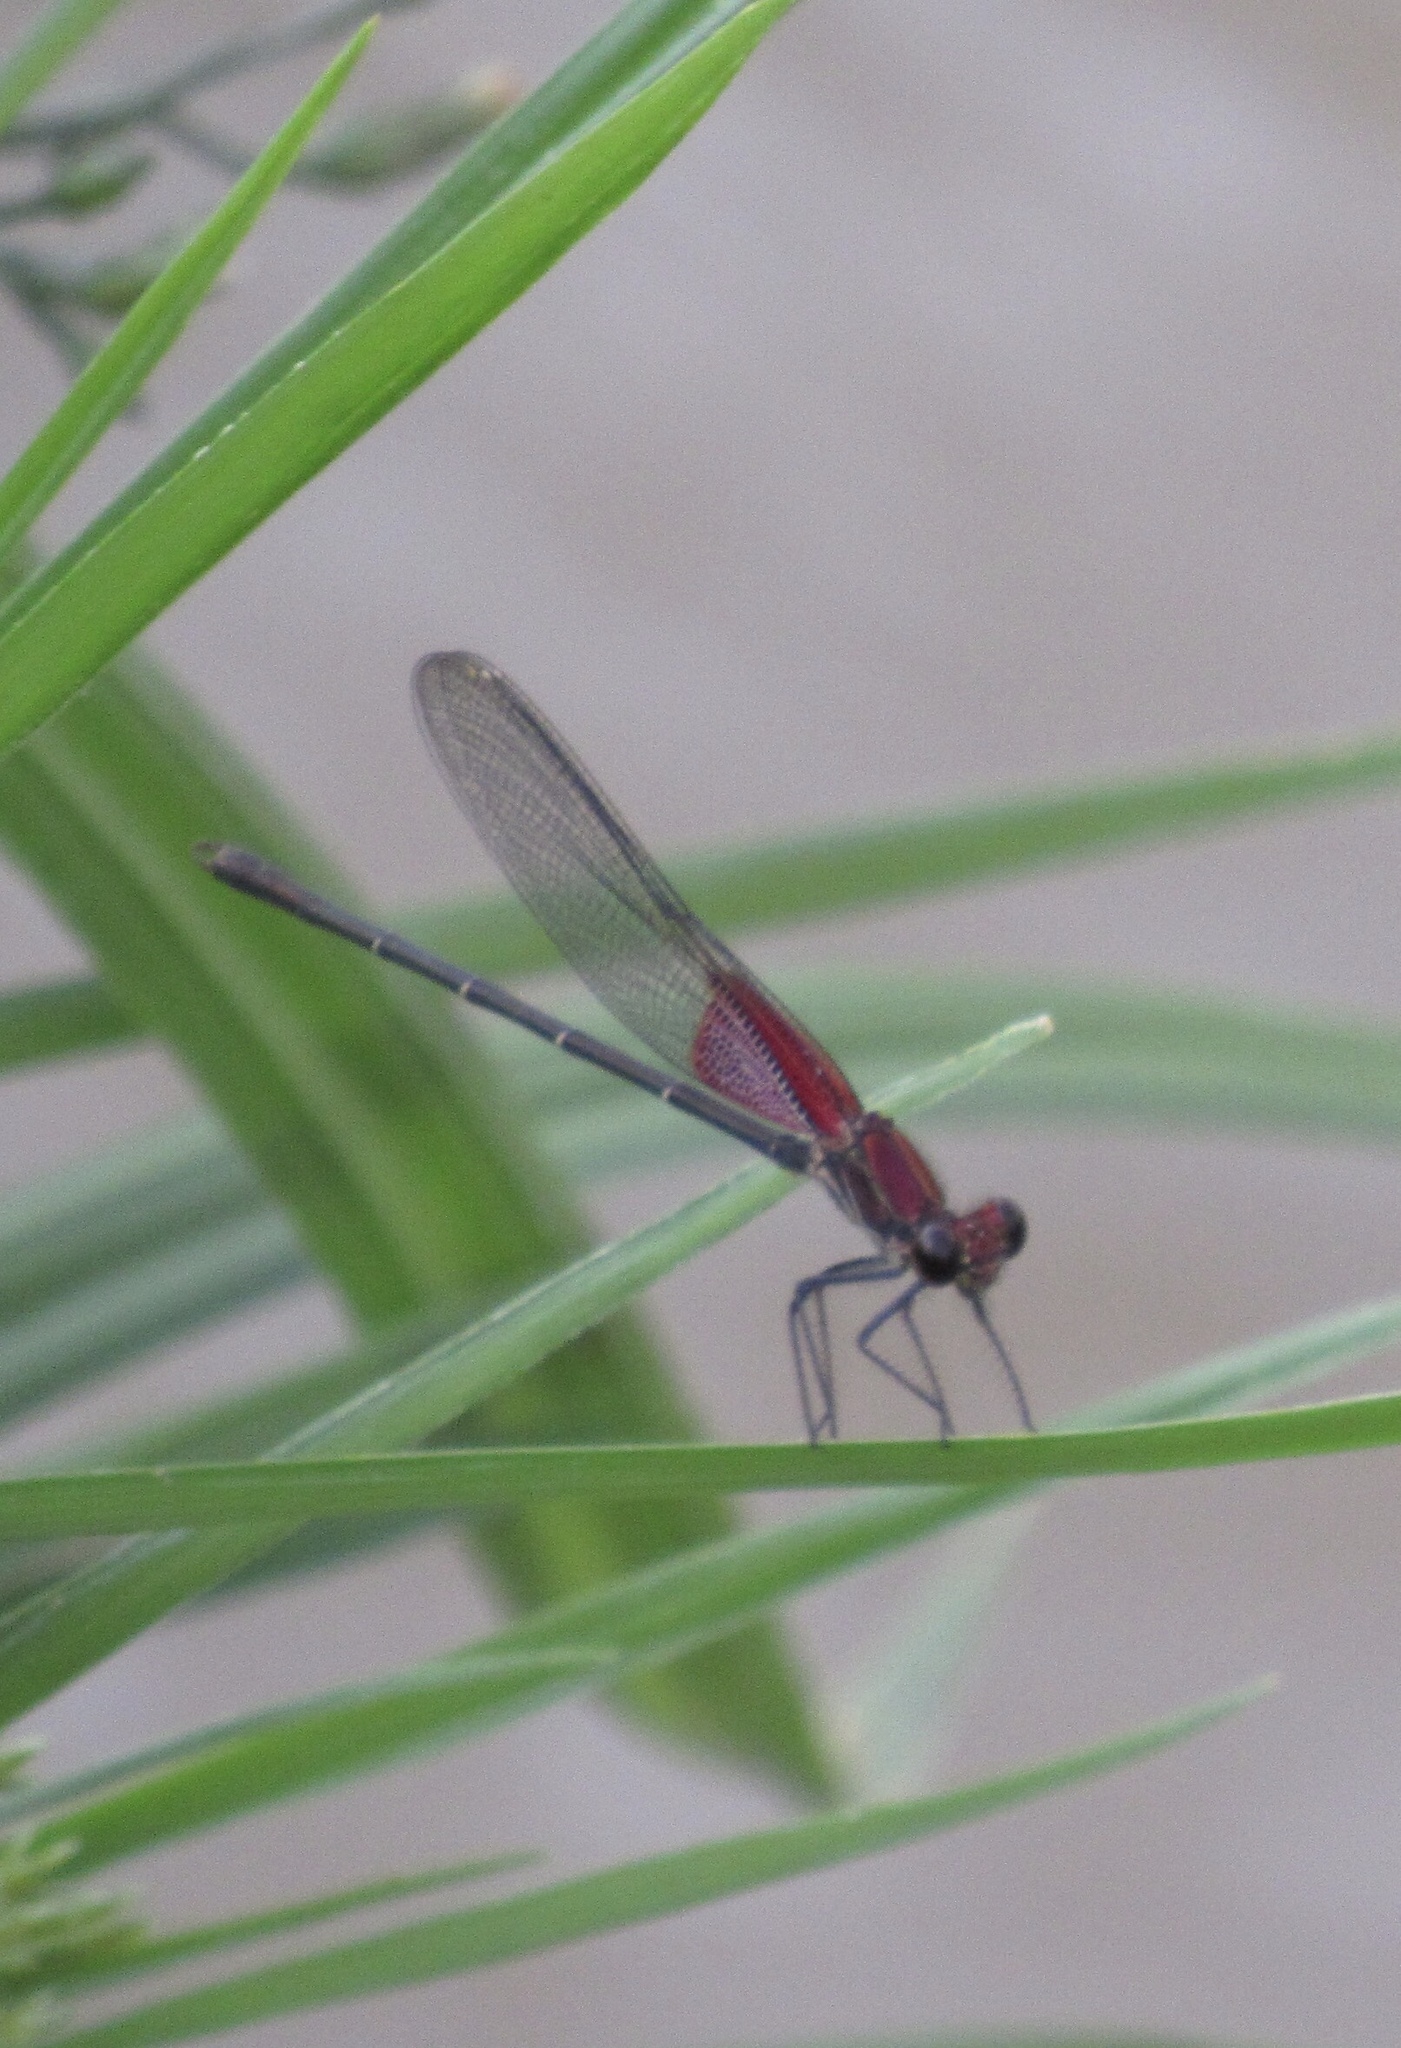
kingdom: Animalia
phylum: Arthropoda
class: Insecta
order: Odonata
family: Calopterygidae
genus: Hetaerina
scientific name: Hetaerina americana
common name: American rubyspot
